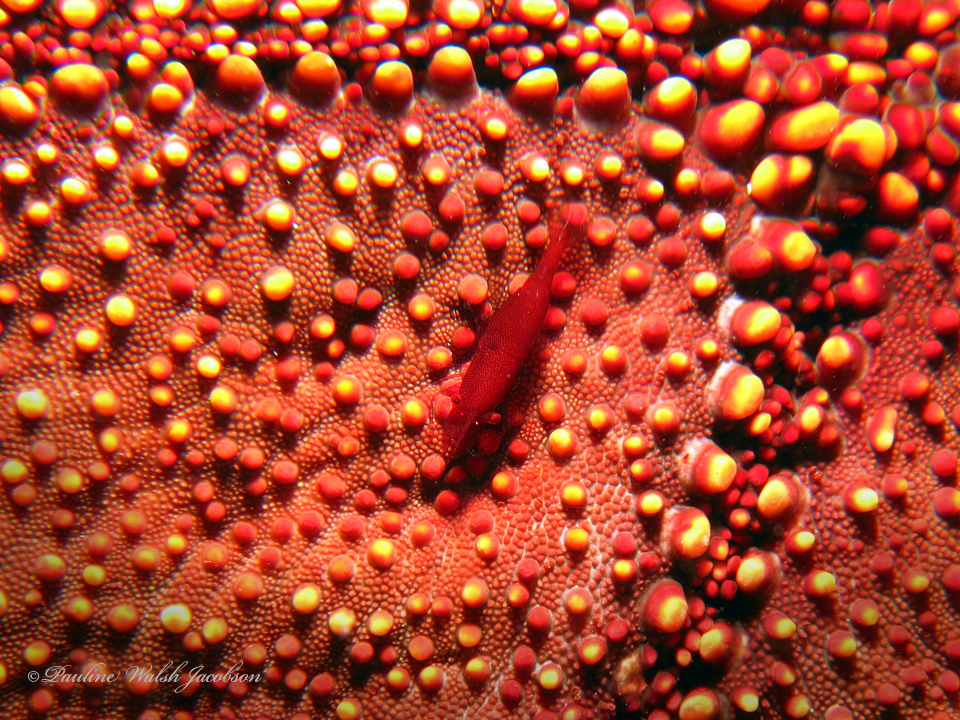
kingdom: Animalia
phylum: Arthropoda
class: Malacostraca
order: Decapoda
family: Palaemonidae
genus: Periclimenes
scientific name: Periclimenes soror
